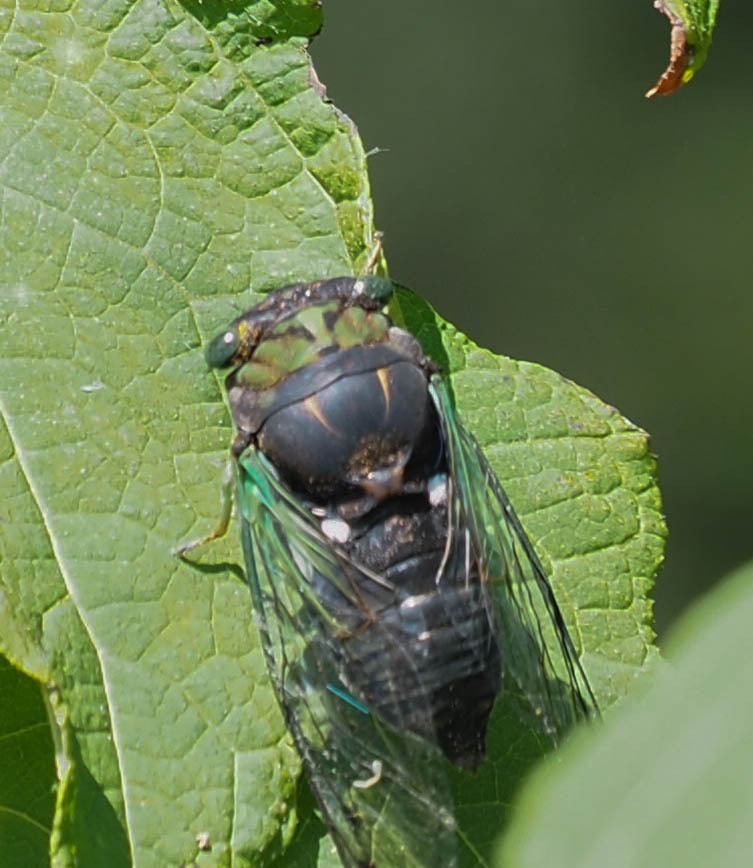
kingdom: Animalia
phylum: Arthropoda
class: Insecta
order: Hemiptera
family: Cicadidae
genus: Neotibicen
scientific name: Neotibicen tibicen
